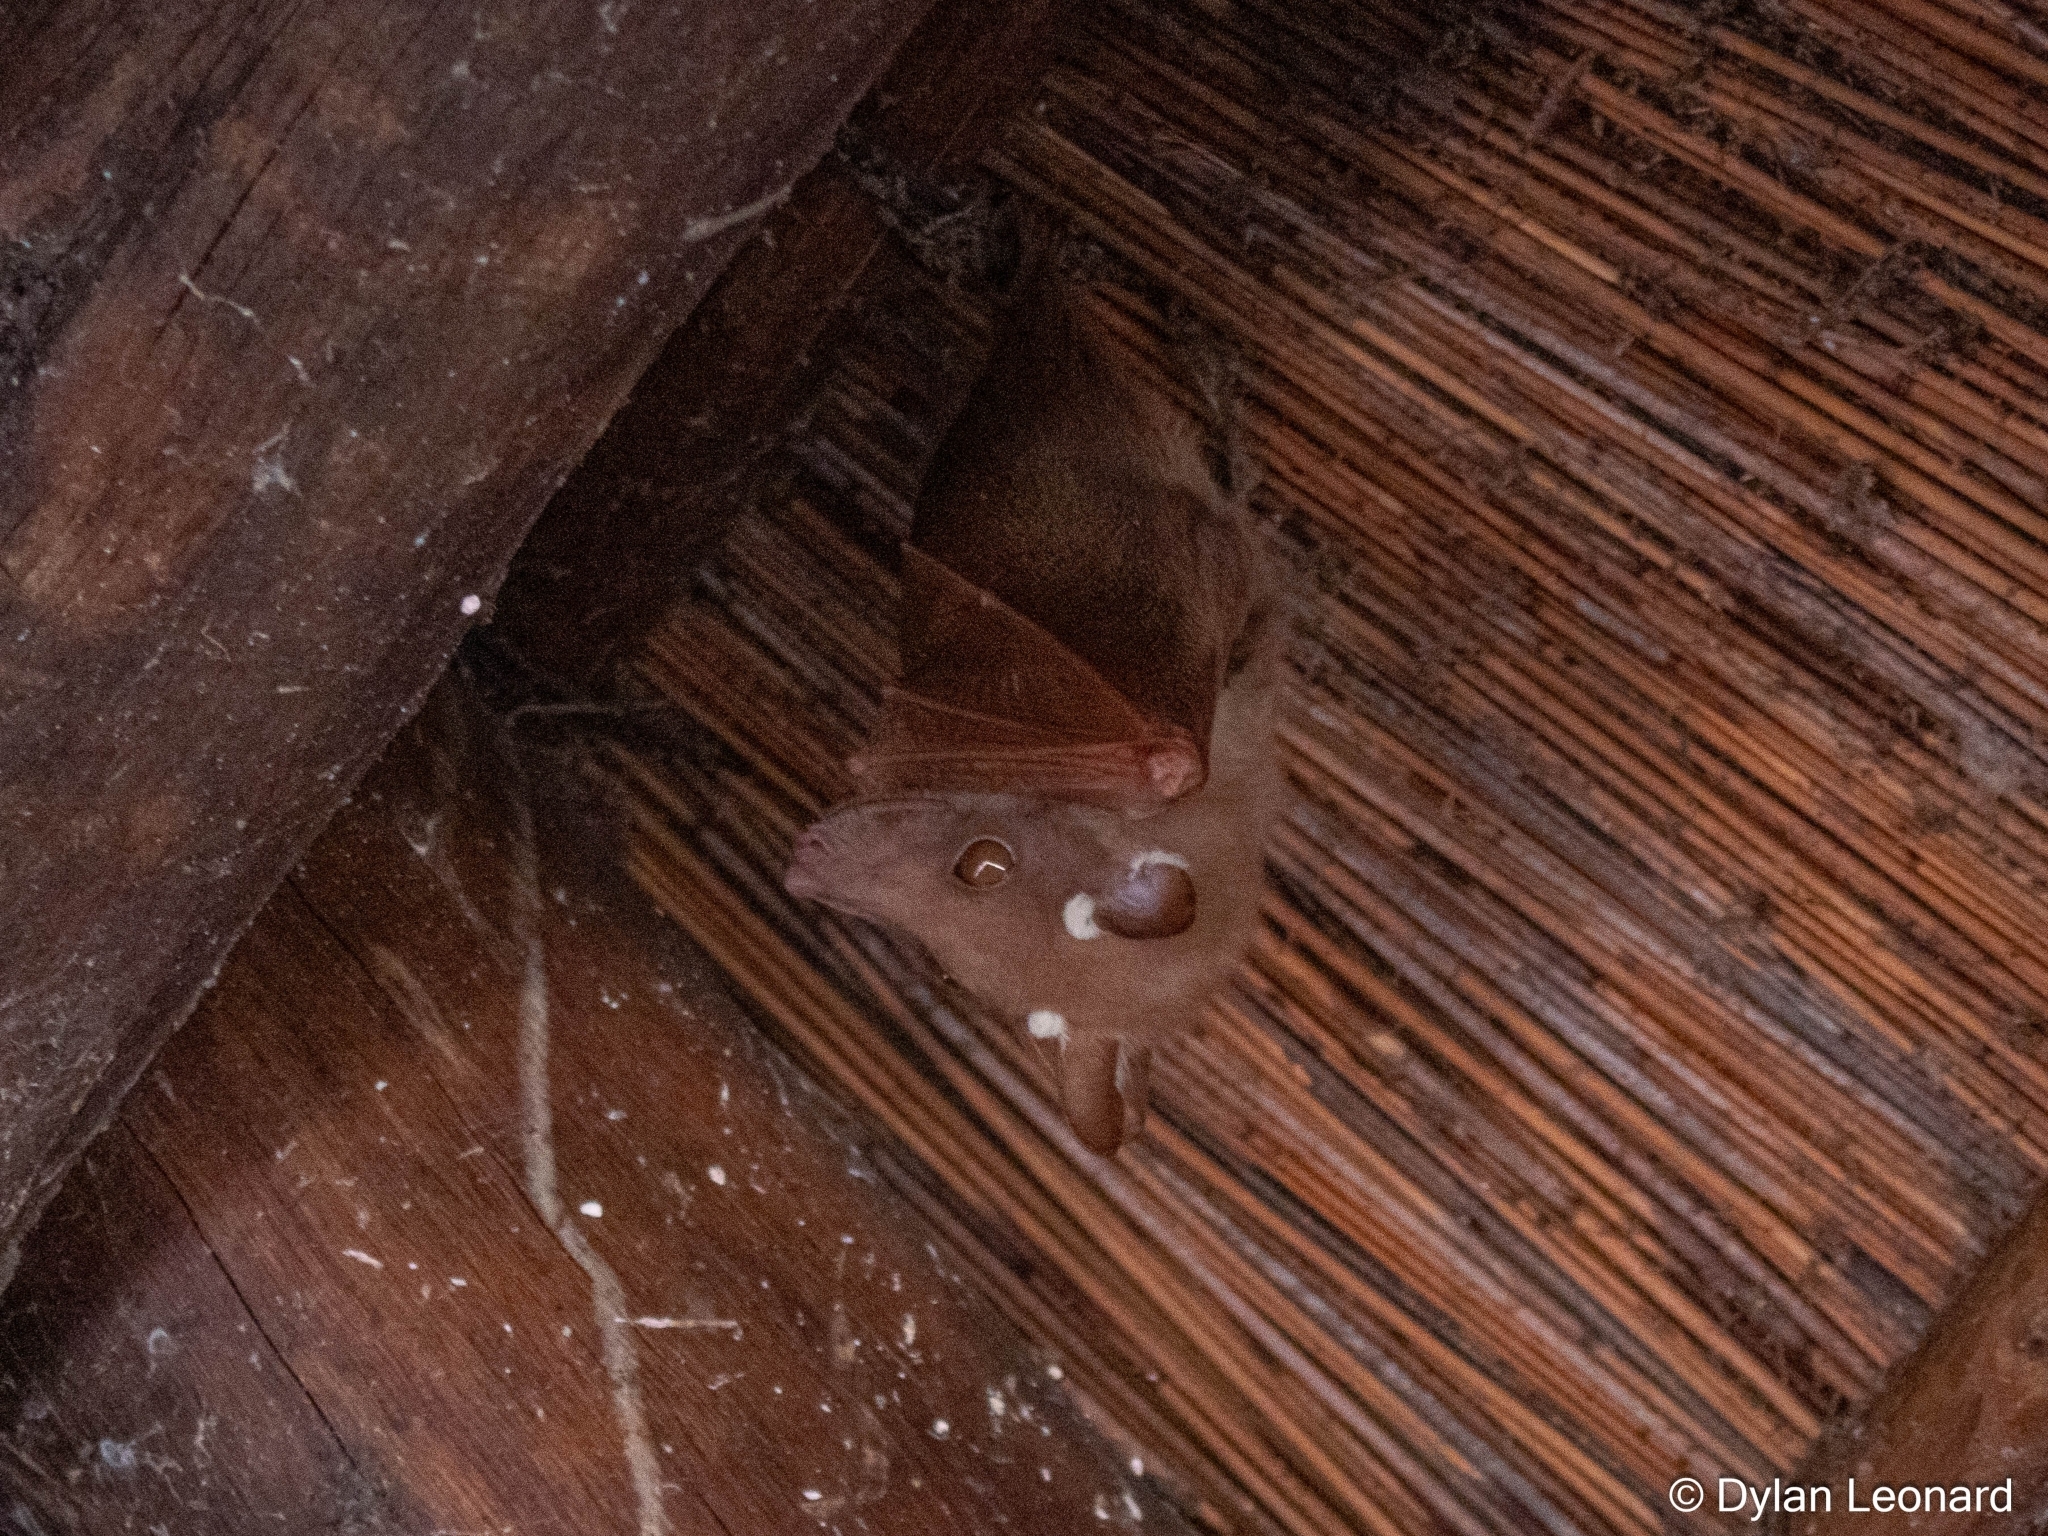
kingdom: Animalia
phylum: Chordata
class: Mammalia
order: Chiroptera
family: Pteropodidae
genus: Epomophorus
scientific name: Epomophorus wahlbergi
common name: Wahlberg's epauletted fruit bat
